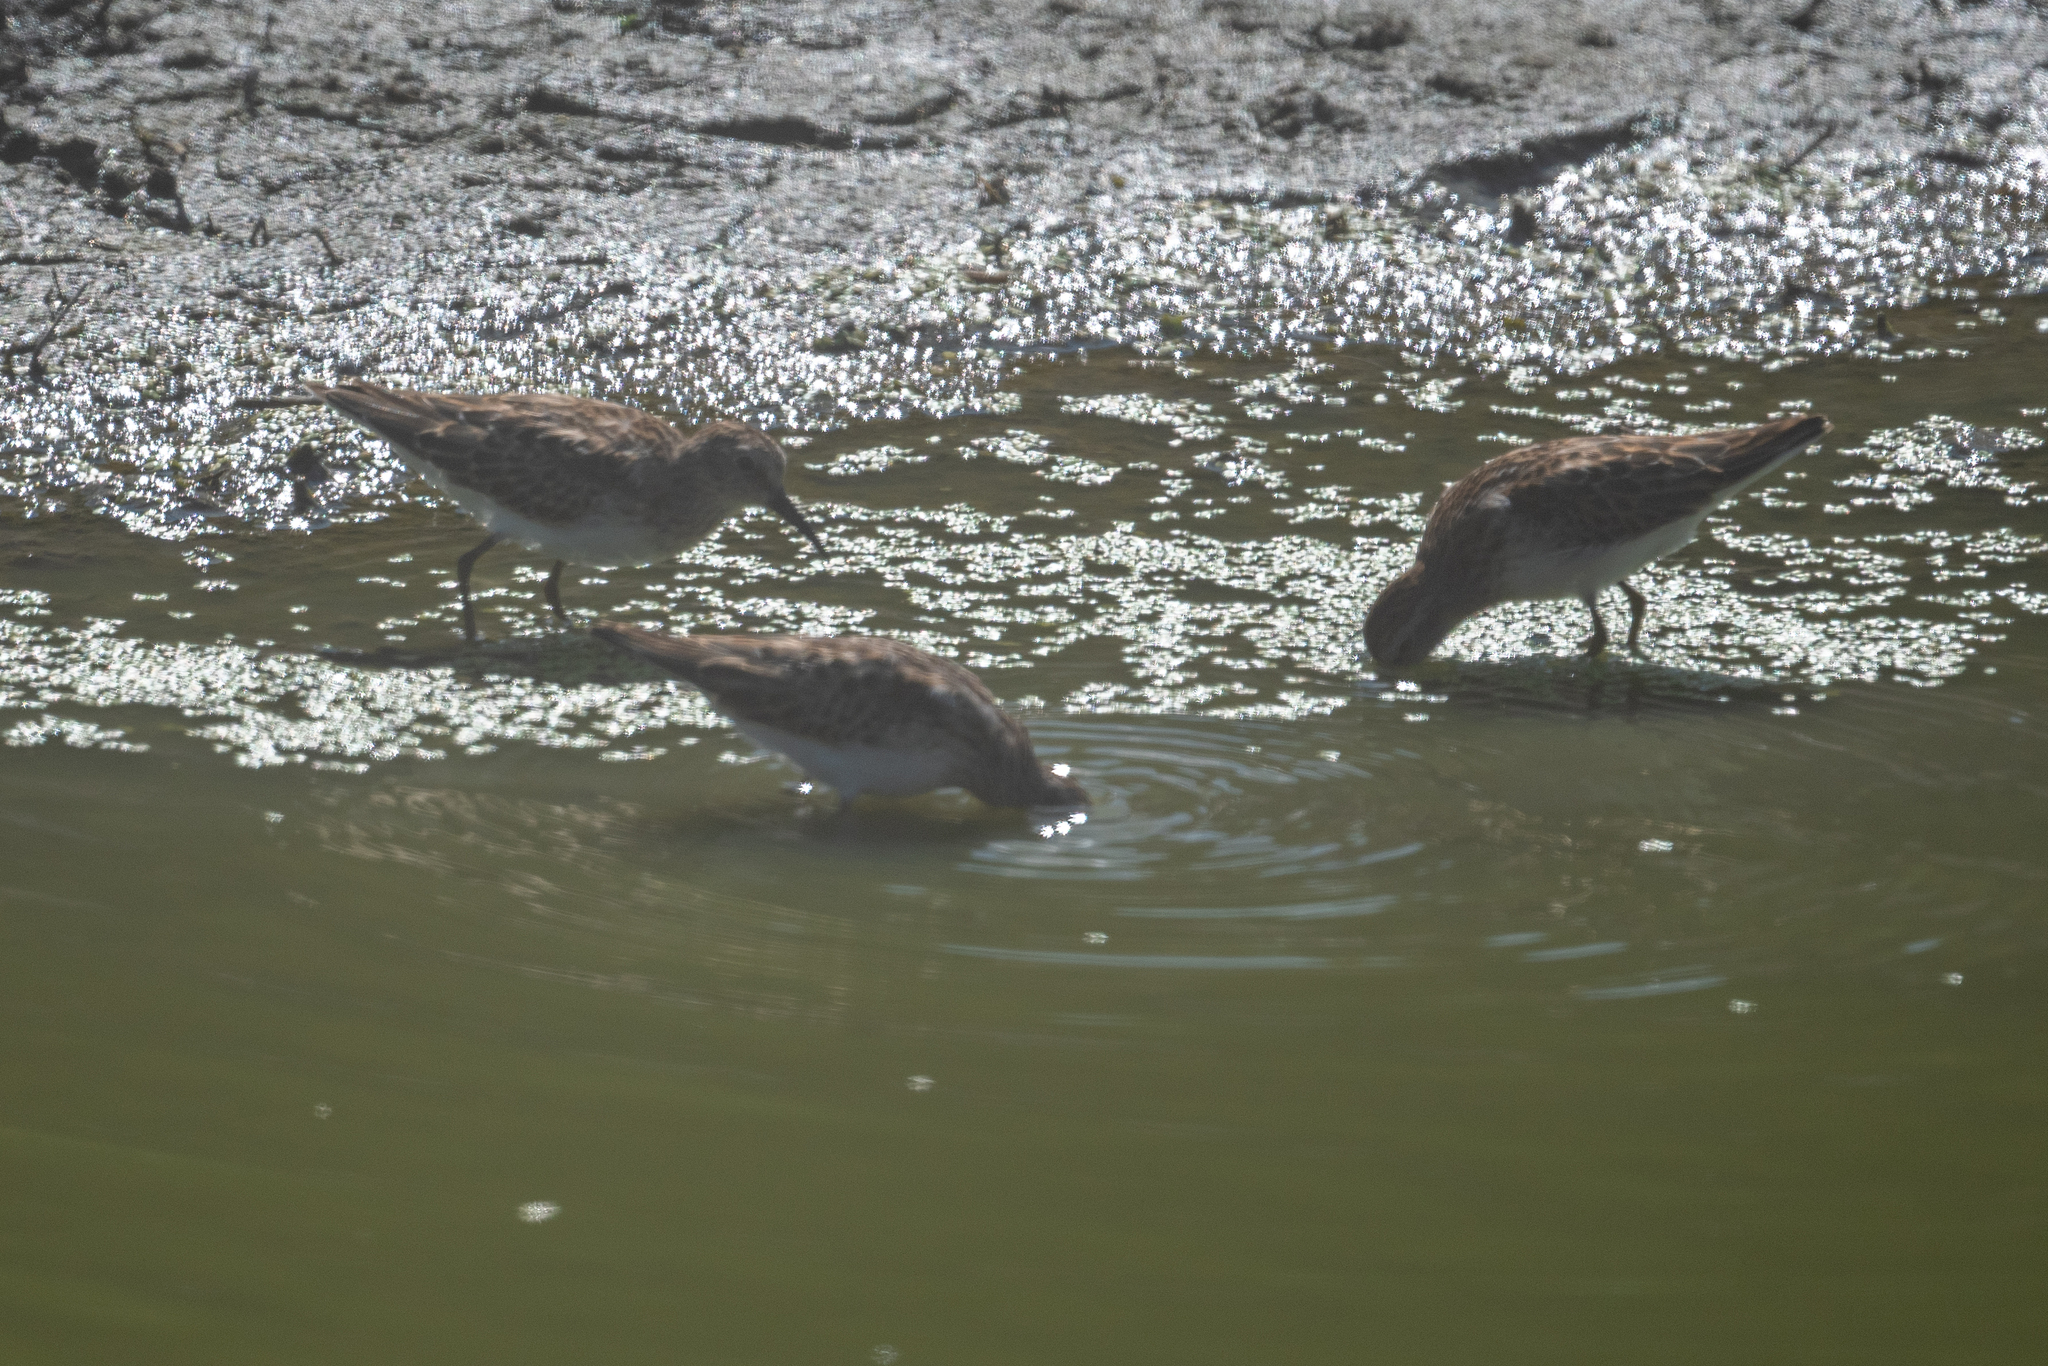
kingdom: Animalia
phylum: Chordata
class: Aves
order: Charadriiformes
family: Scolopacidae
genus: Calidris
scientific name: Calidris minutilla
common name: Least sandpiper
